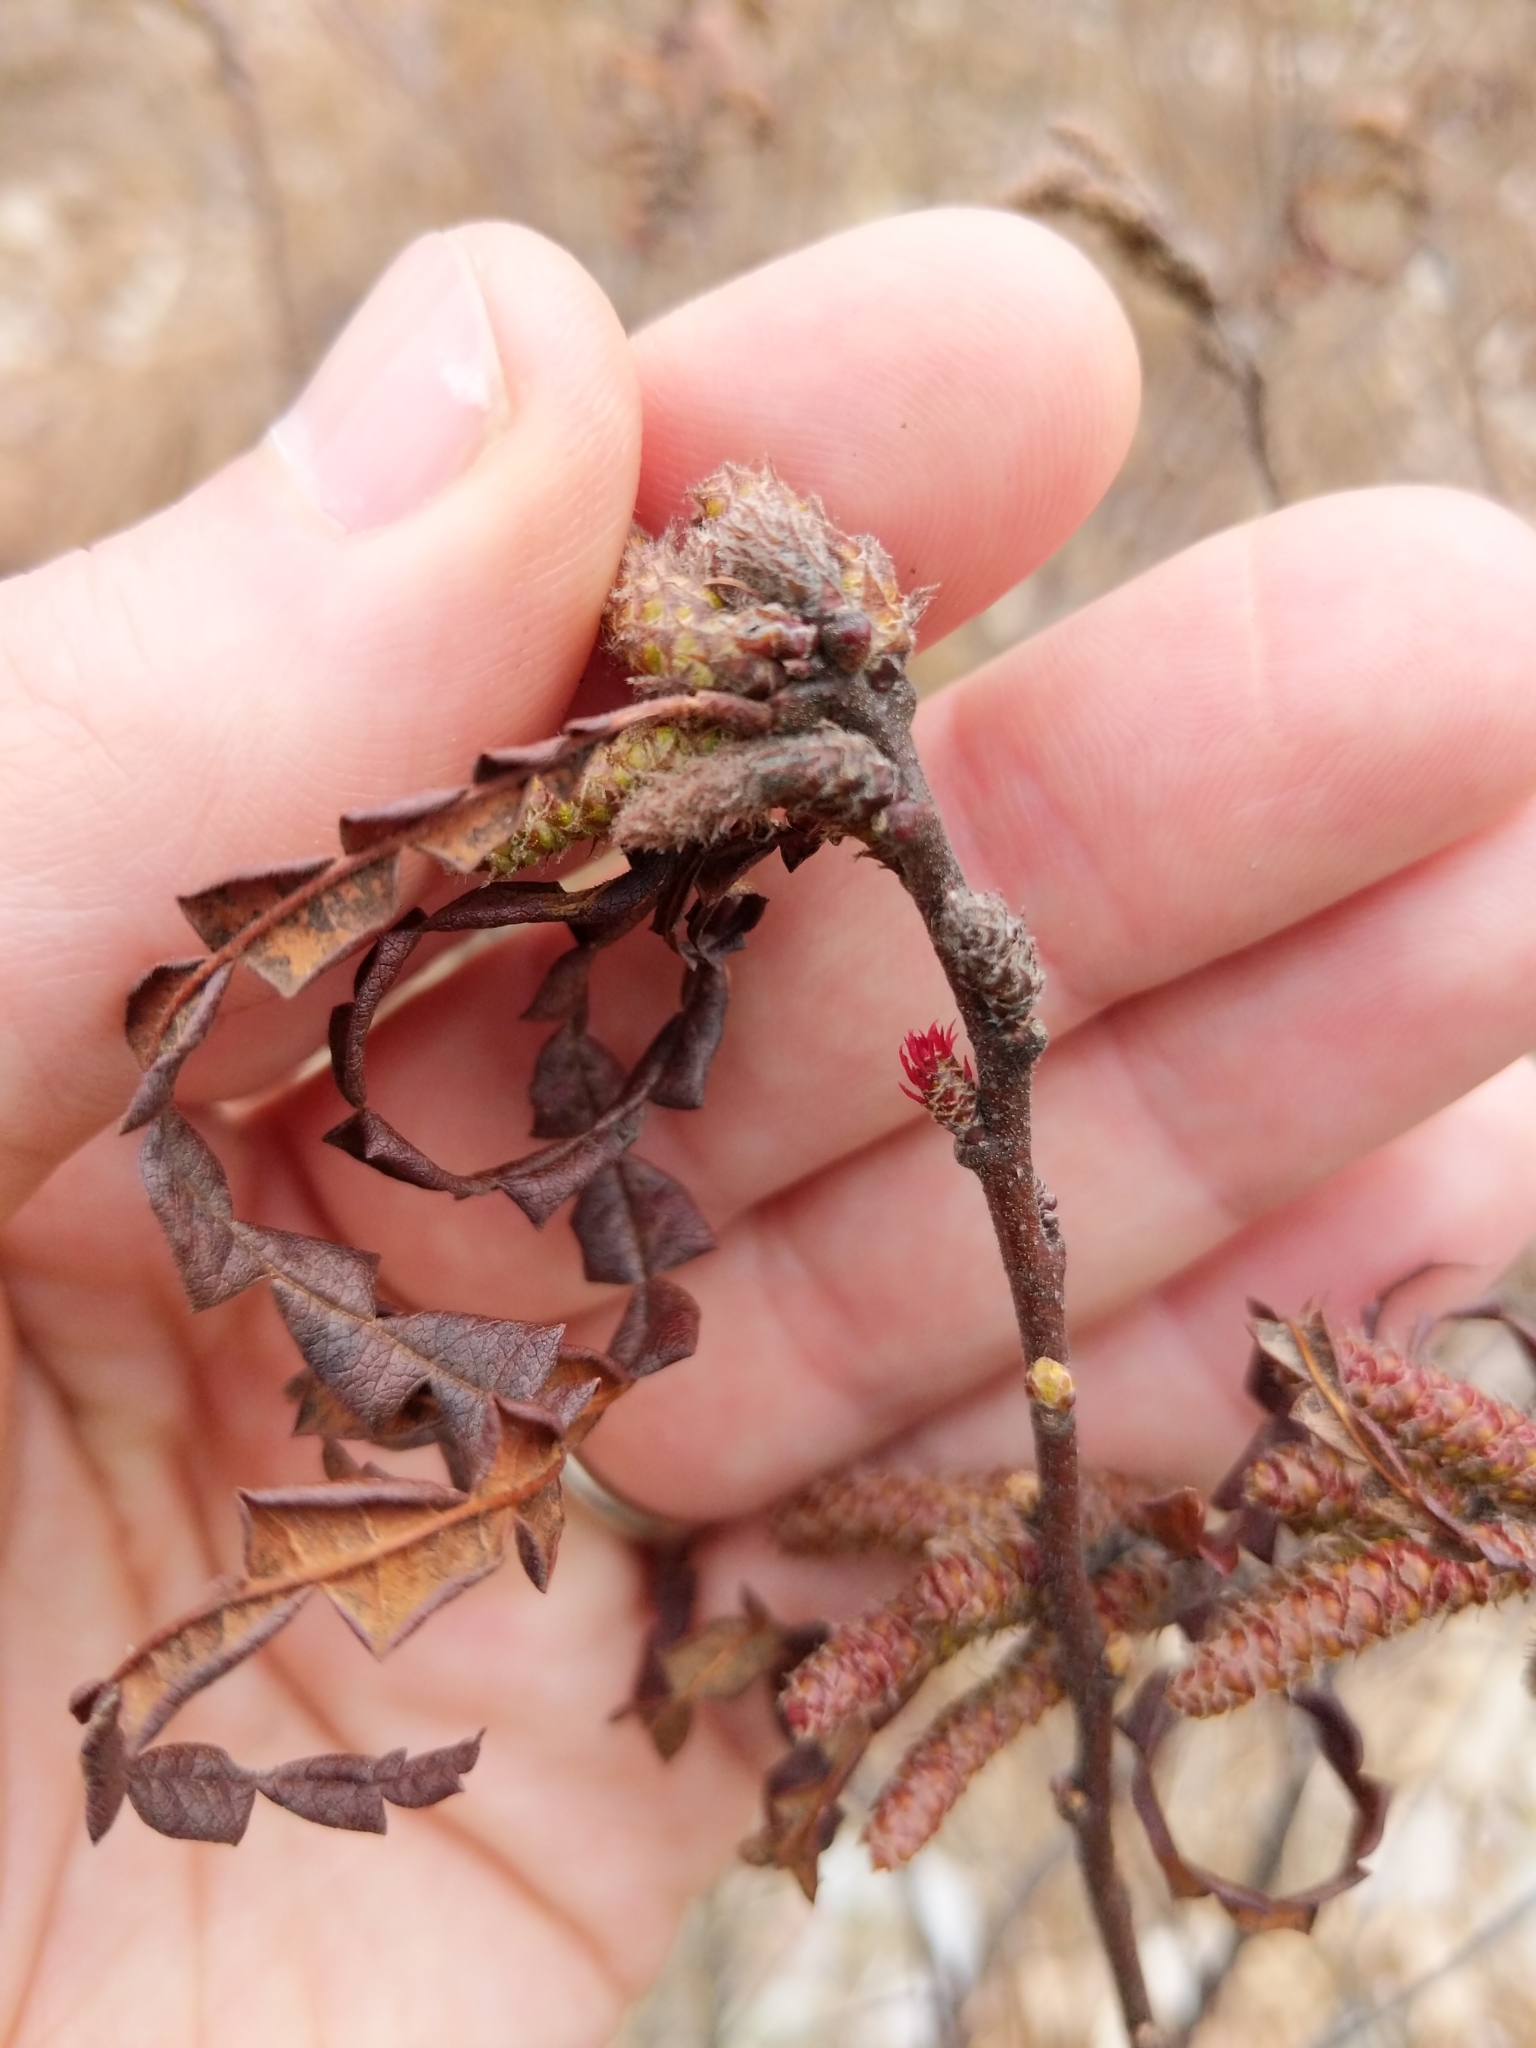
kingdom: Plantae
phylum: Tracheophyta
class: Magnoliopsida
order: Fagales
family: Myricaceae
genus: Comptonia
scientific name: Comptonia peregrina
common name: Sweet-fern
